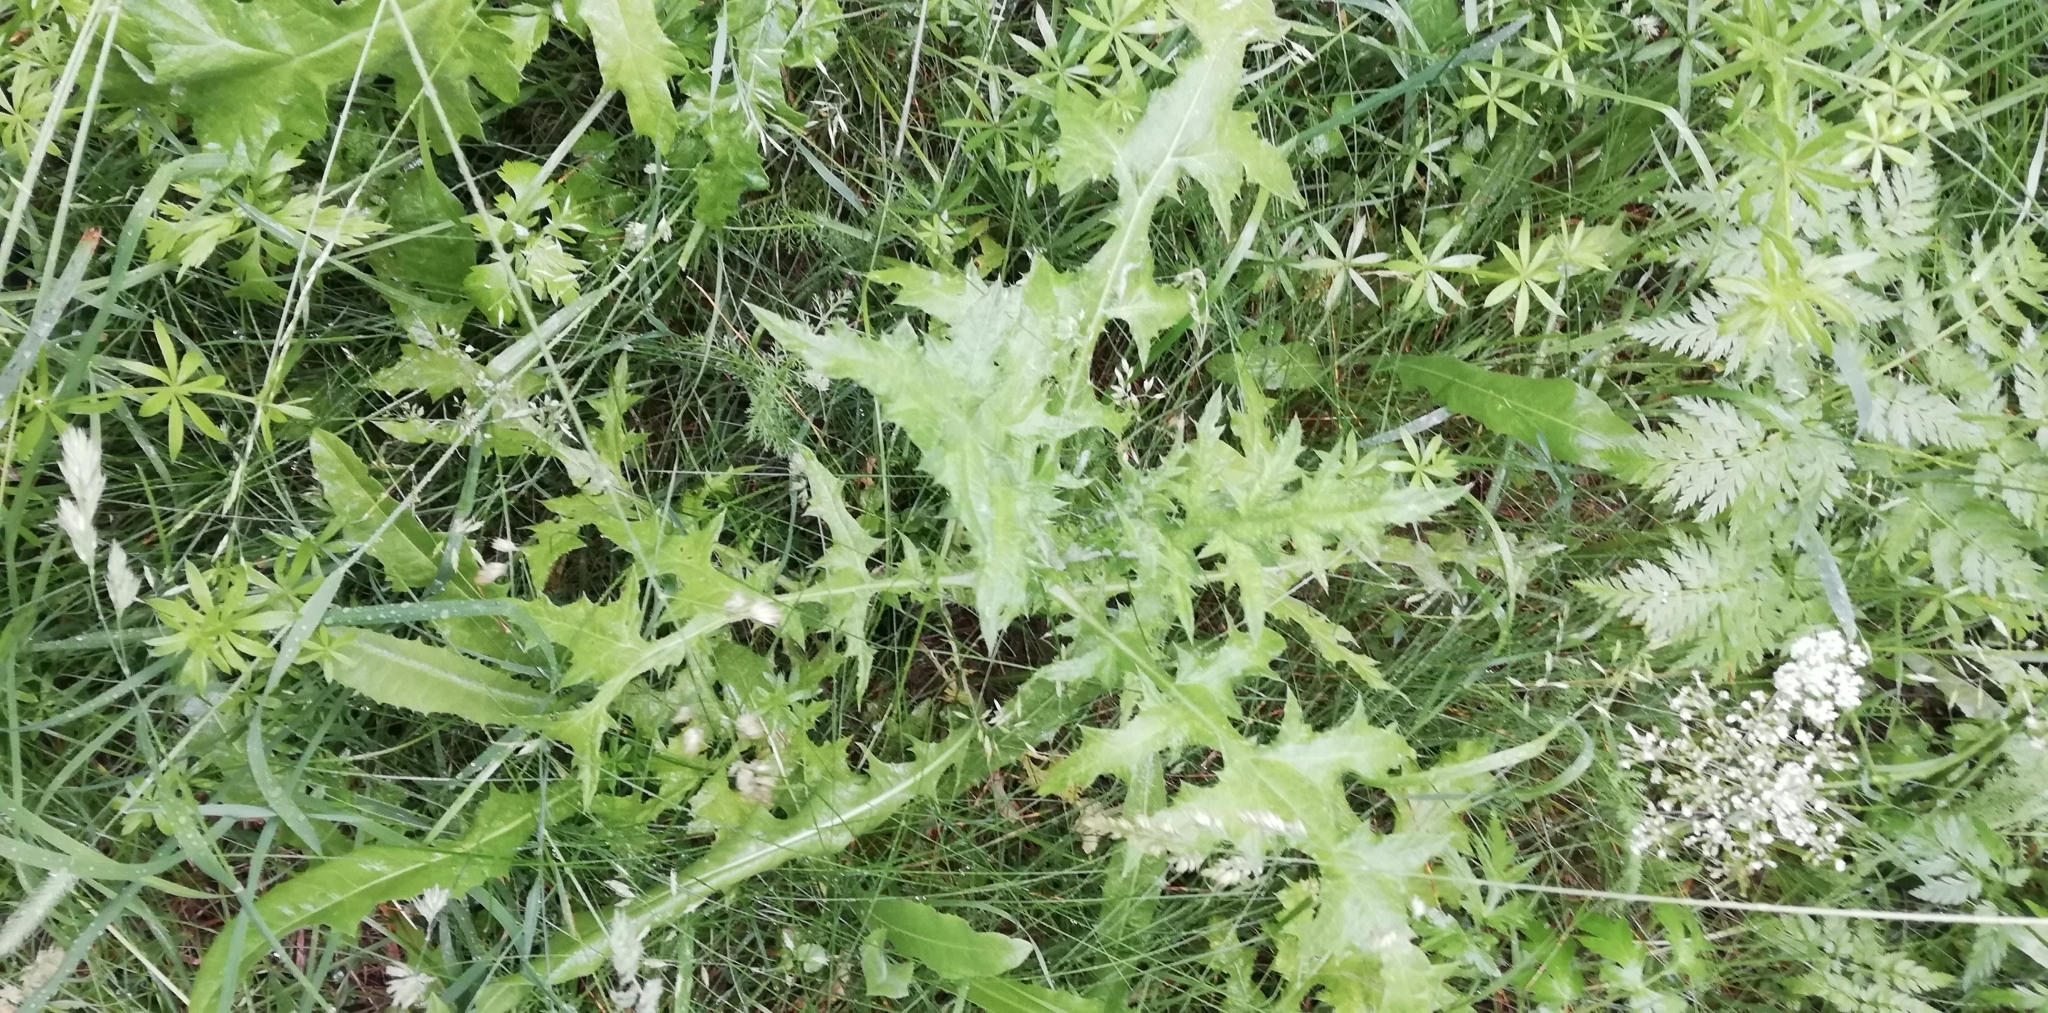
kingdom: Plantae
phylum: Tracheophyta
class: Magnoliopsida
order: Asterales
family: Asteraceae
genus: Echinops
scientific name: Echinops sphaerocephalus
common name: Glandular globe-thistle
